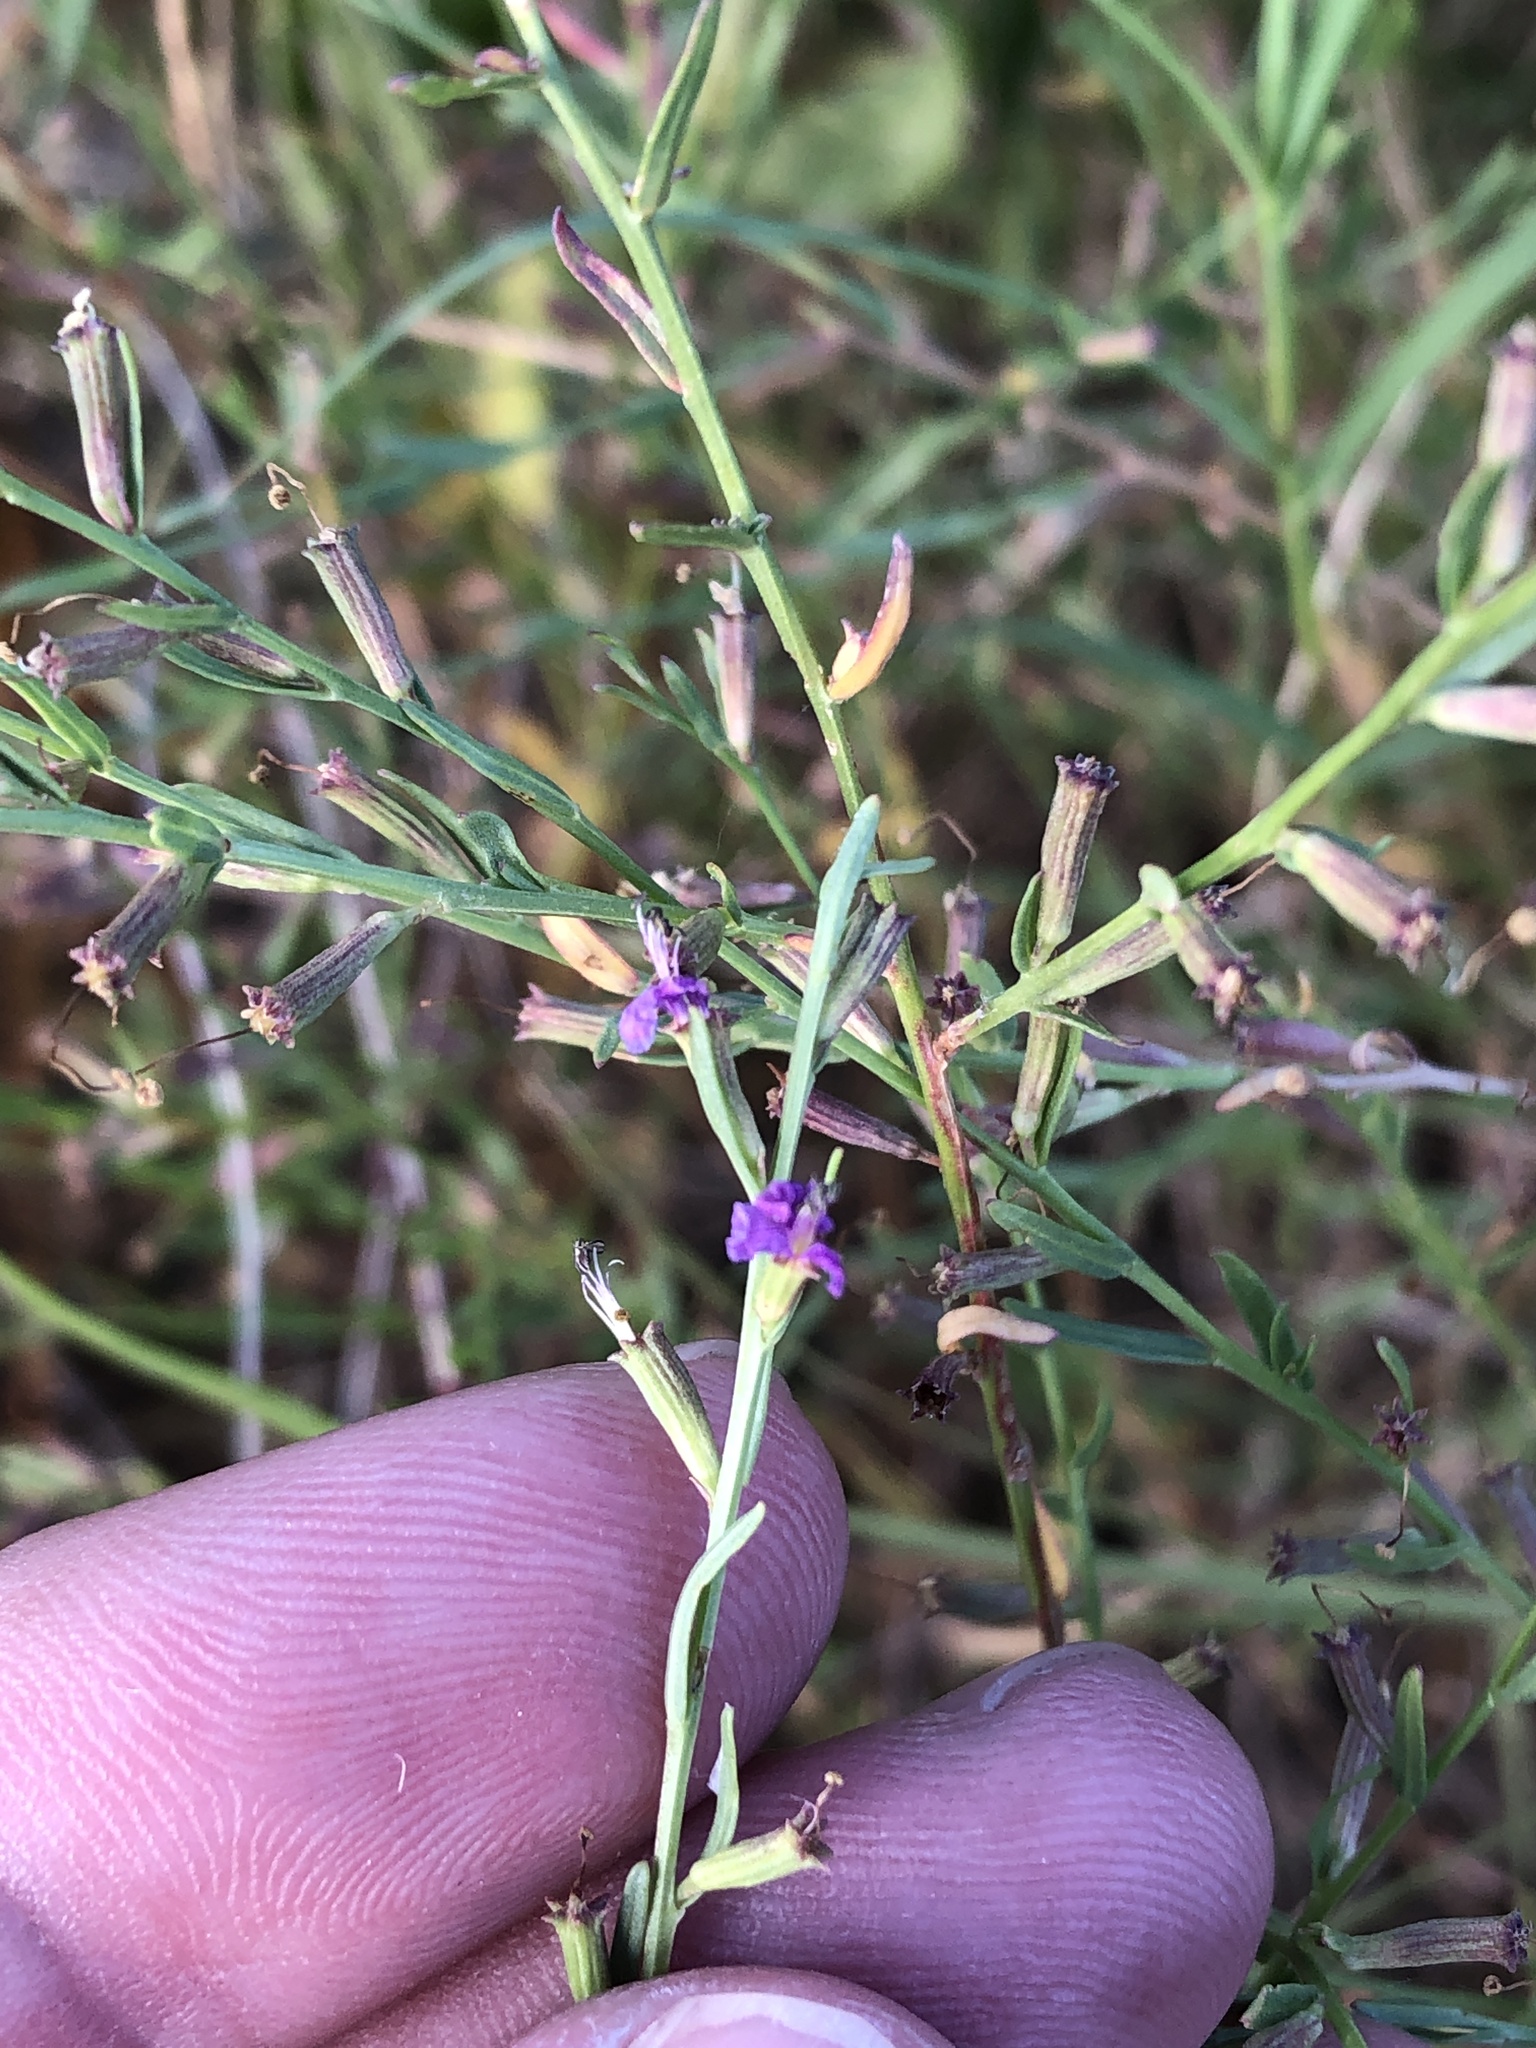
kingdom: Plantae
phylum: Tracheophyta
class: Magnoliopsida
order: Myrtales
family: Lythraceae
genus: Lythrum
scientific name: Lythrum californicum
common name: California loosestrife
